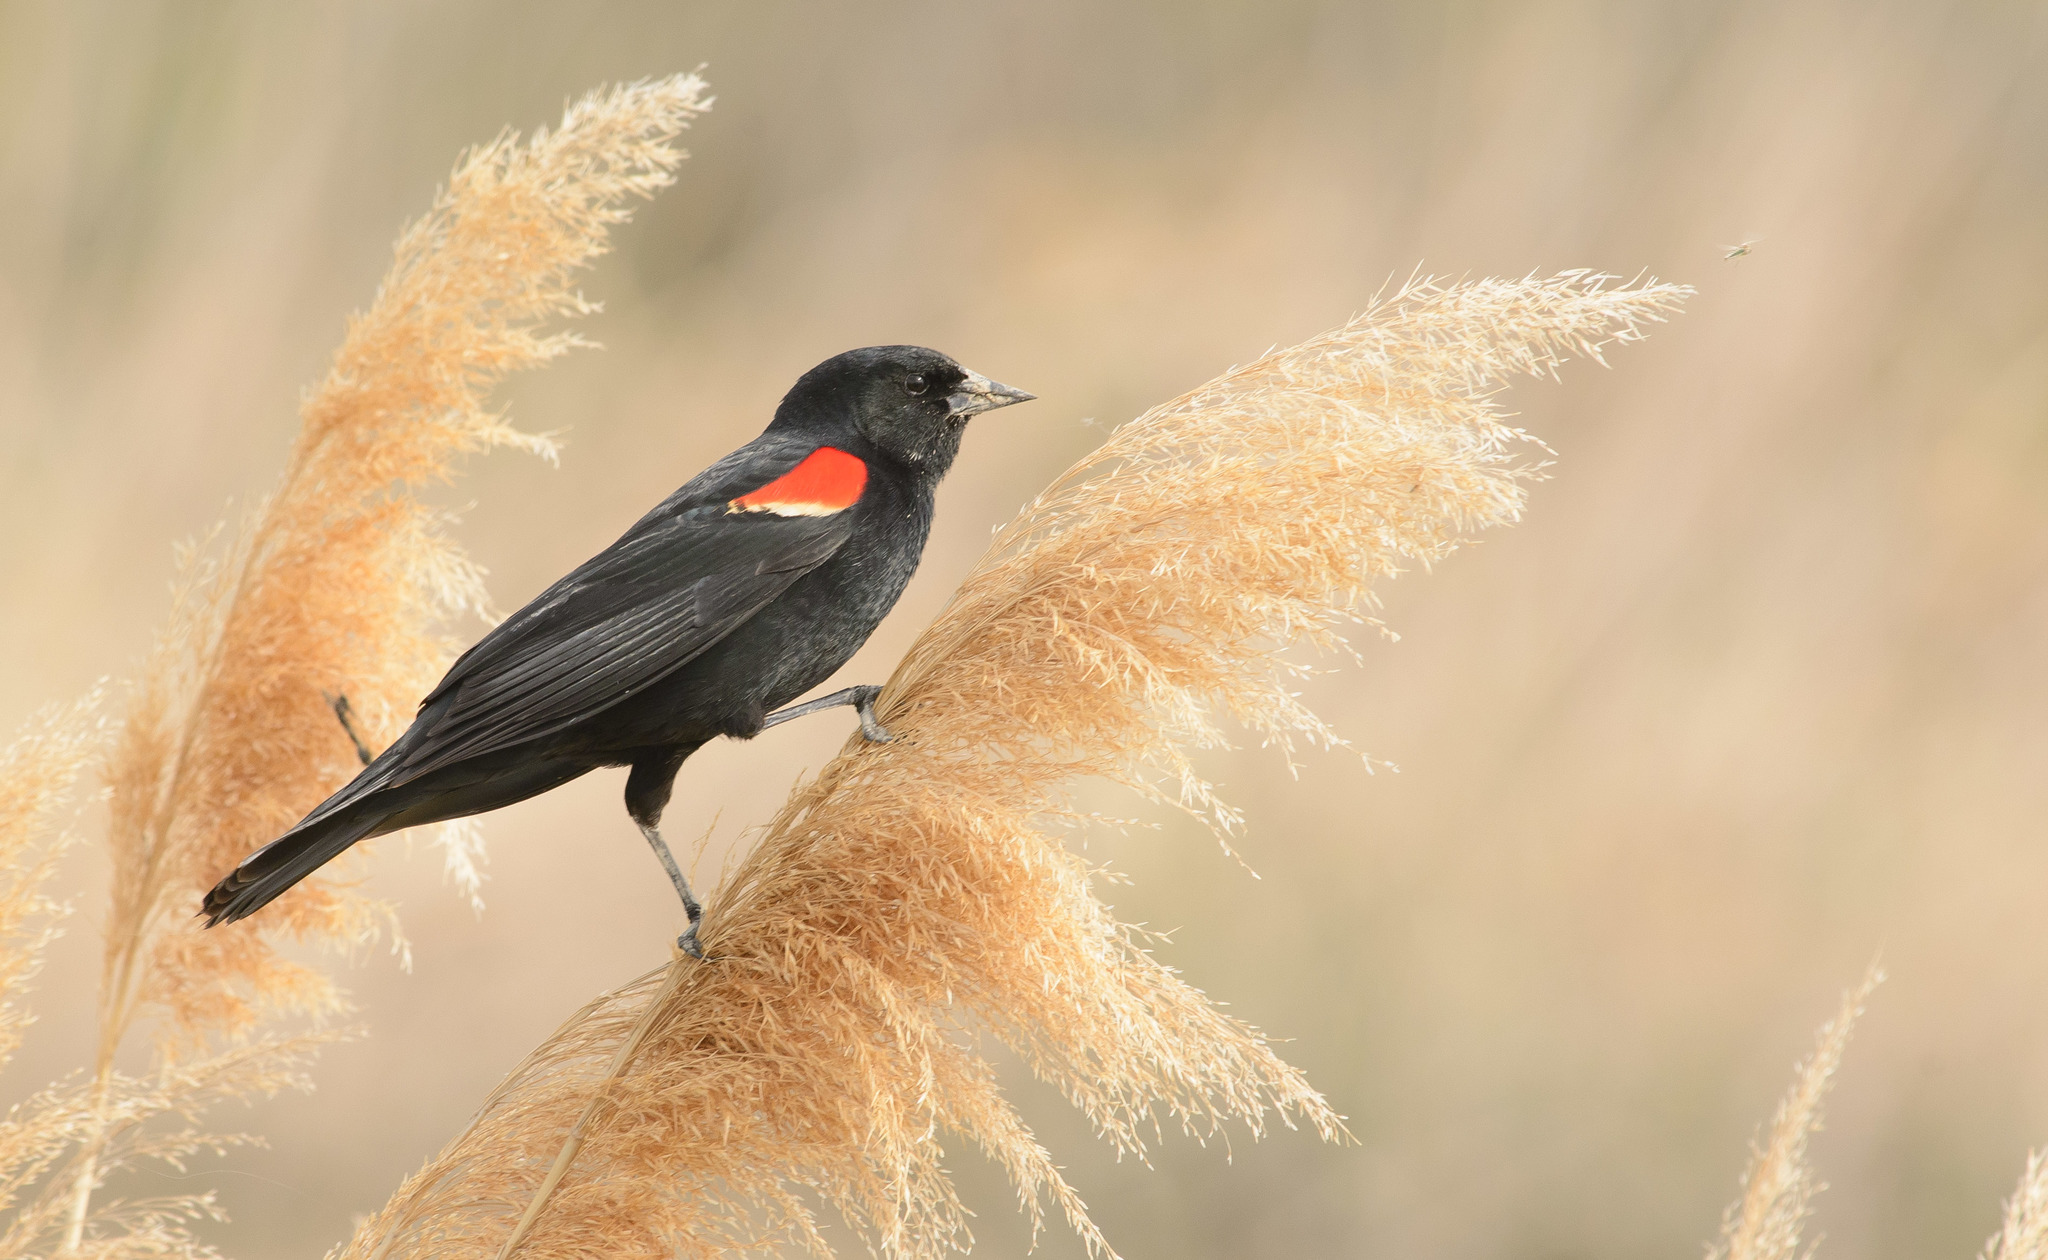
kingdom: Animalia
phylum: Chordata
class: Aves
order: Passeriformes
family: Icteridae
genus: Agelaius
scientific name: Agelaius phoeniceus
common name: Red-winged blackbird
